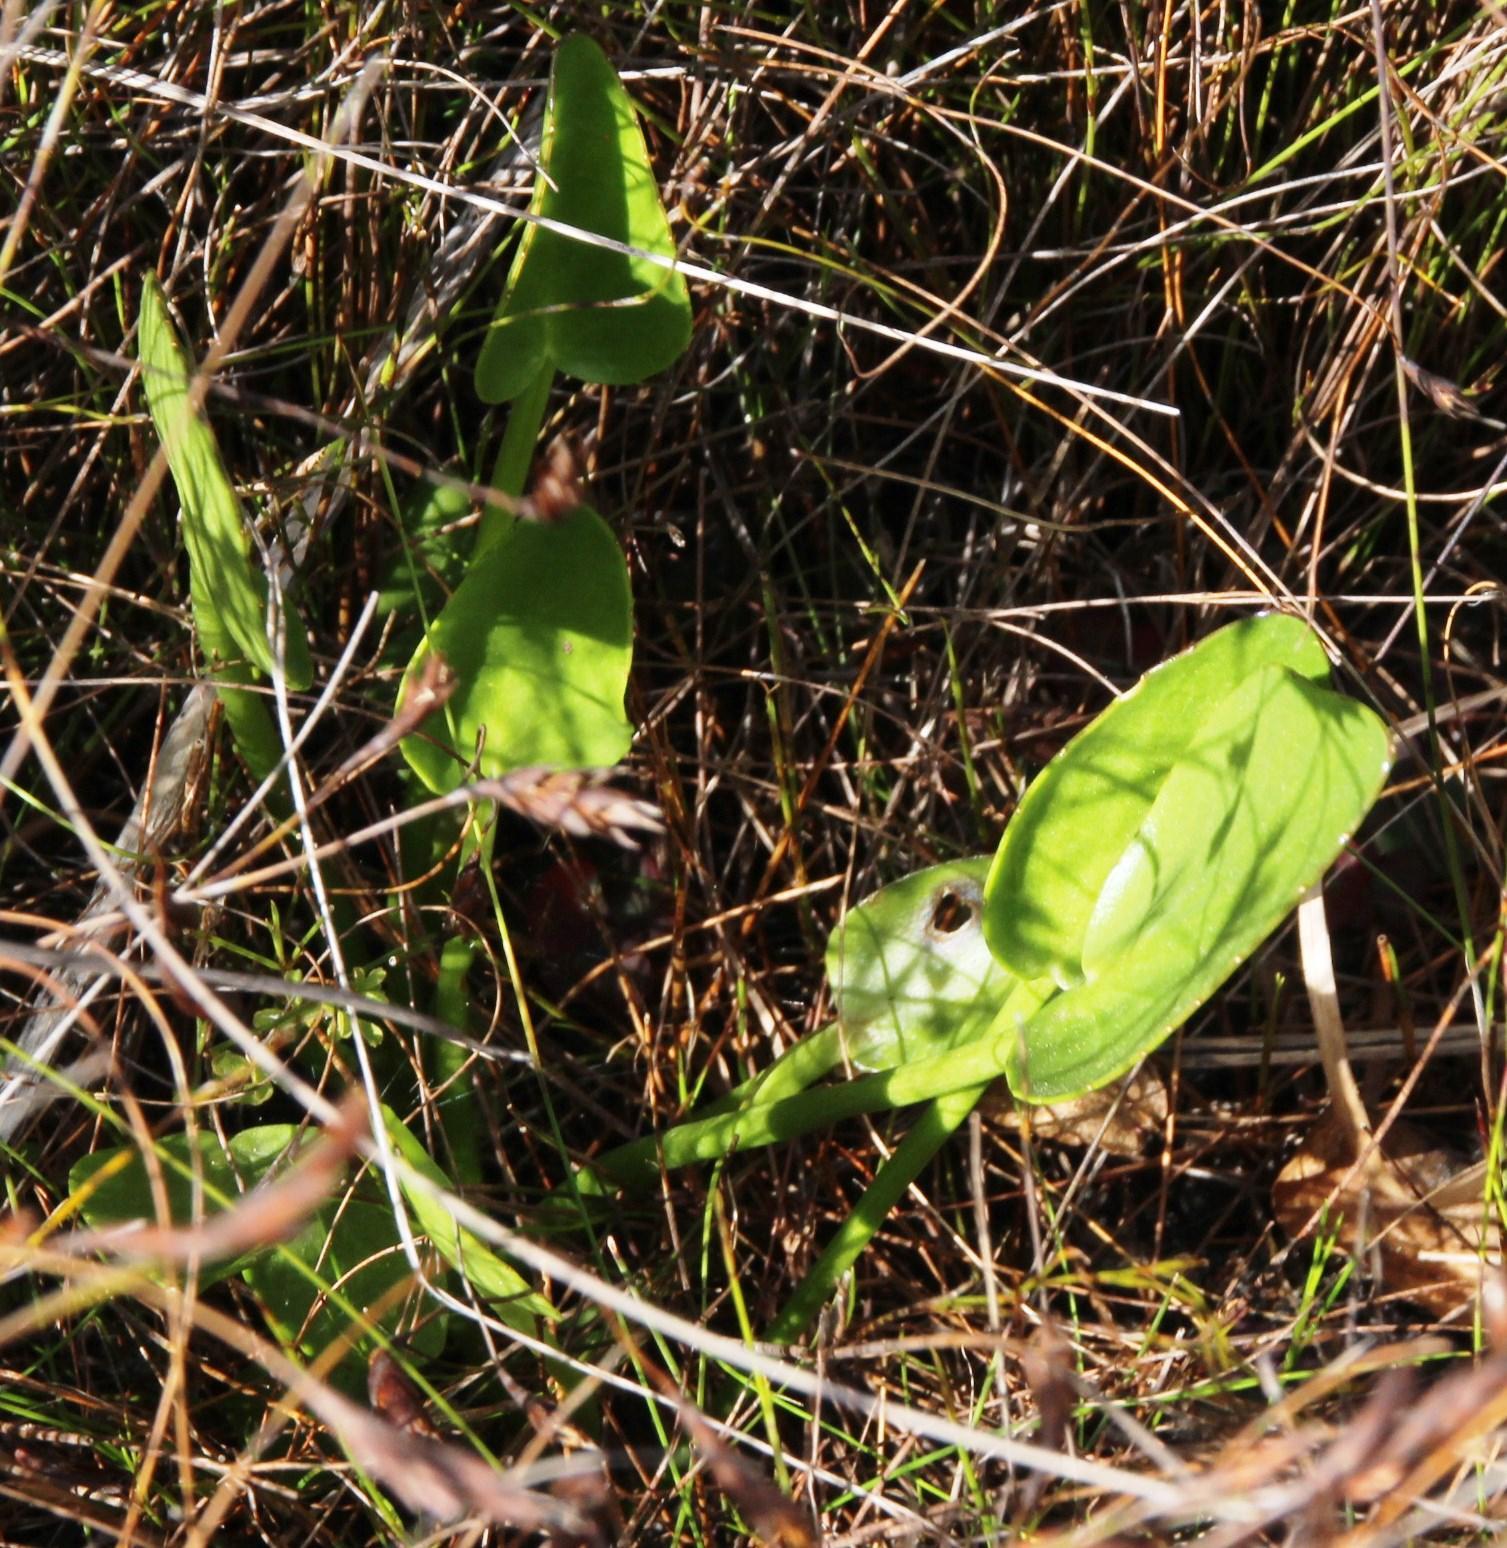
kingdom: Plantae
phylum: Tracheophyta
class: Magnoliopsida
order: Asterales
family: Menyanthaceae
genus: Villarsia
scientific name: Villarsia capensis
